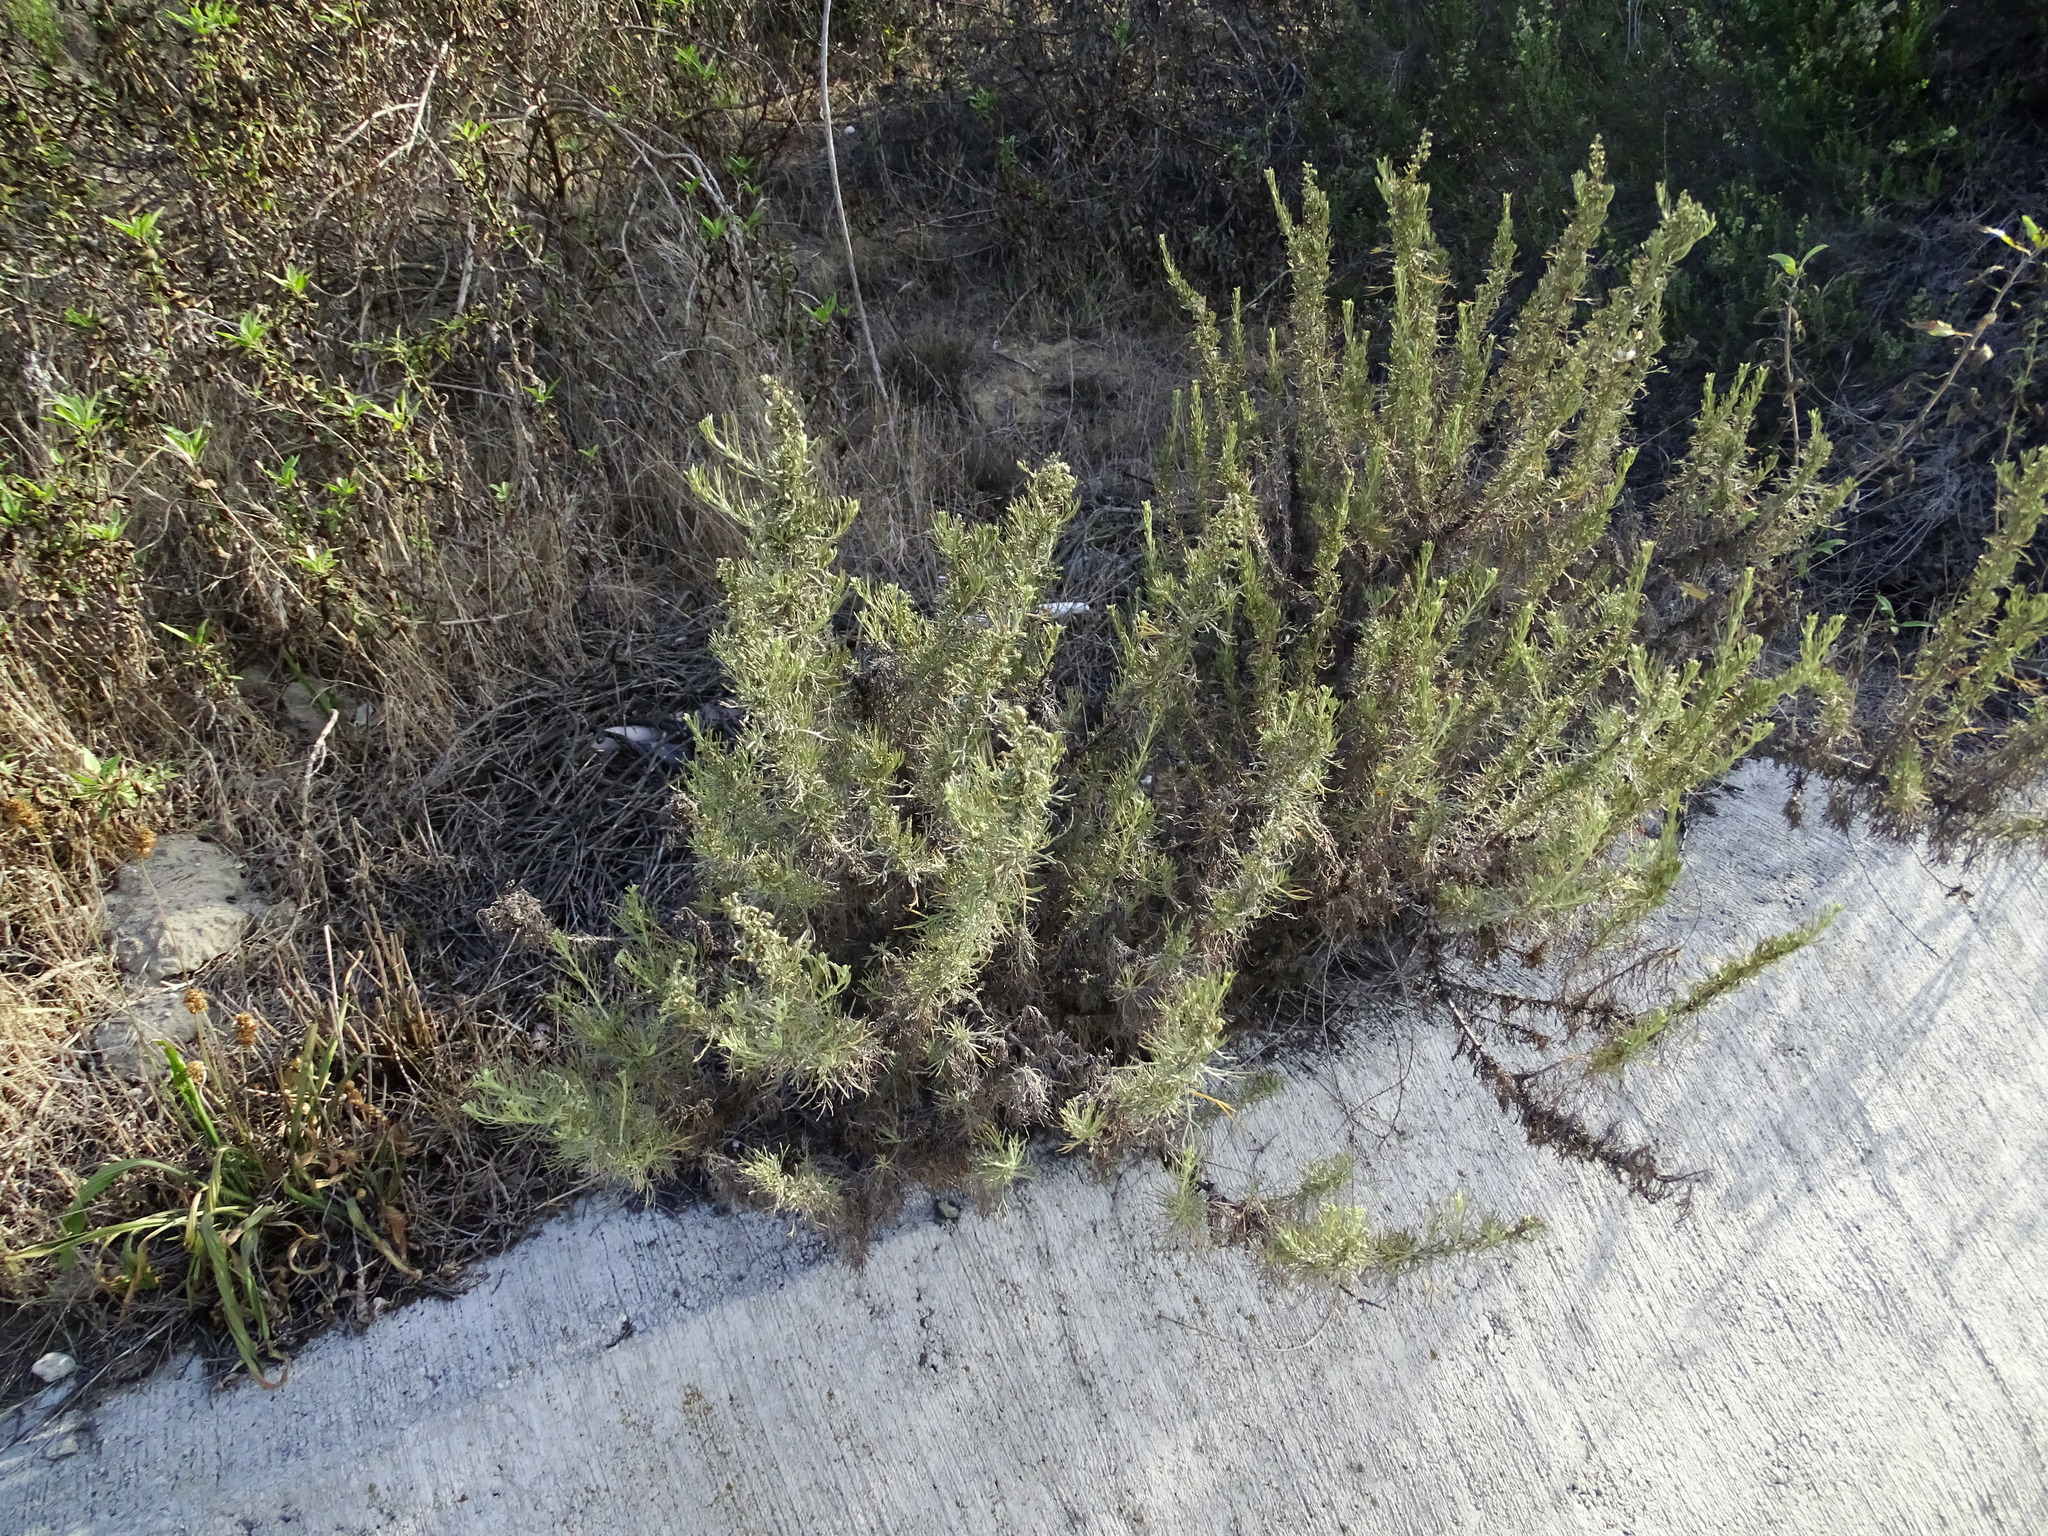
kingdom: Plantae
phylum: Tracheophyta
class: Magnoliopsida
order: Asterales
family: Asteraceae
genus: Artemisia
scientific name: Artemisia californica
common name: California sagebrush
